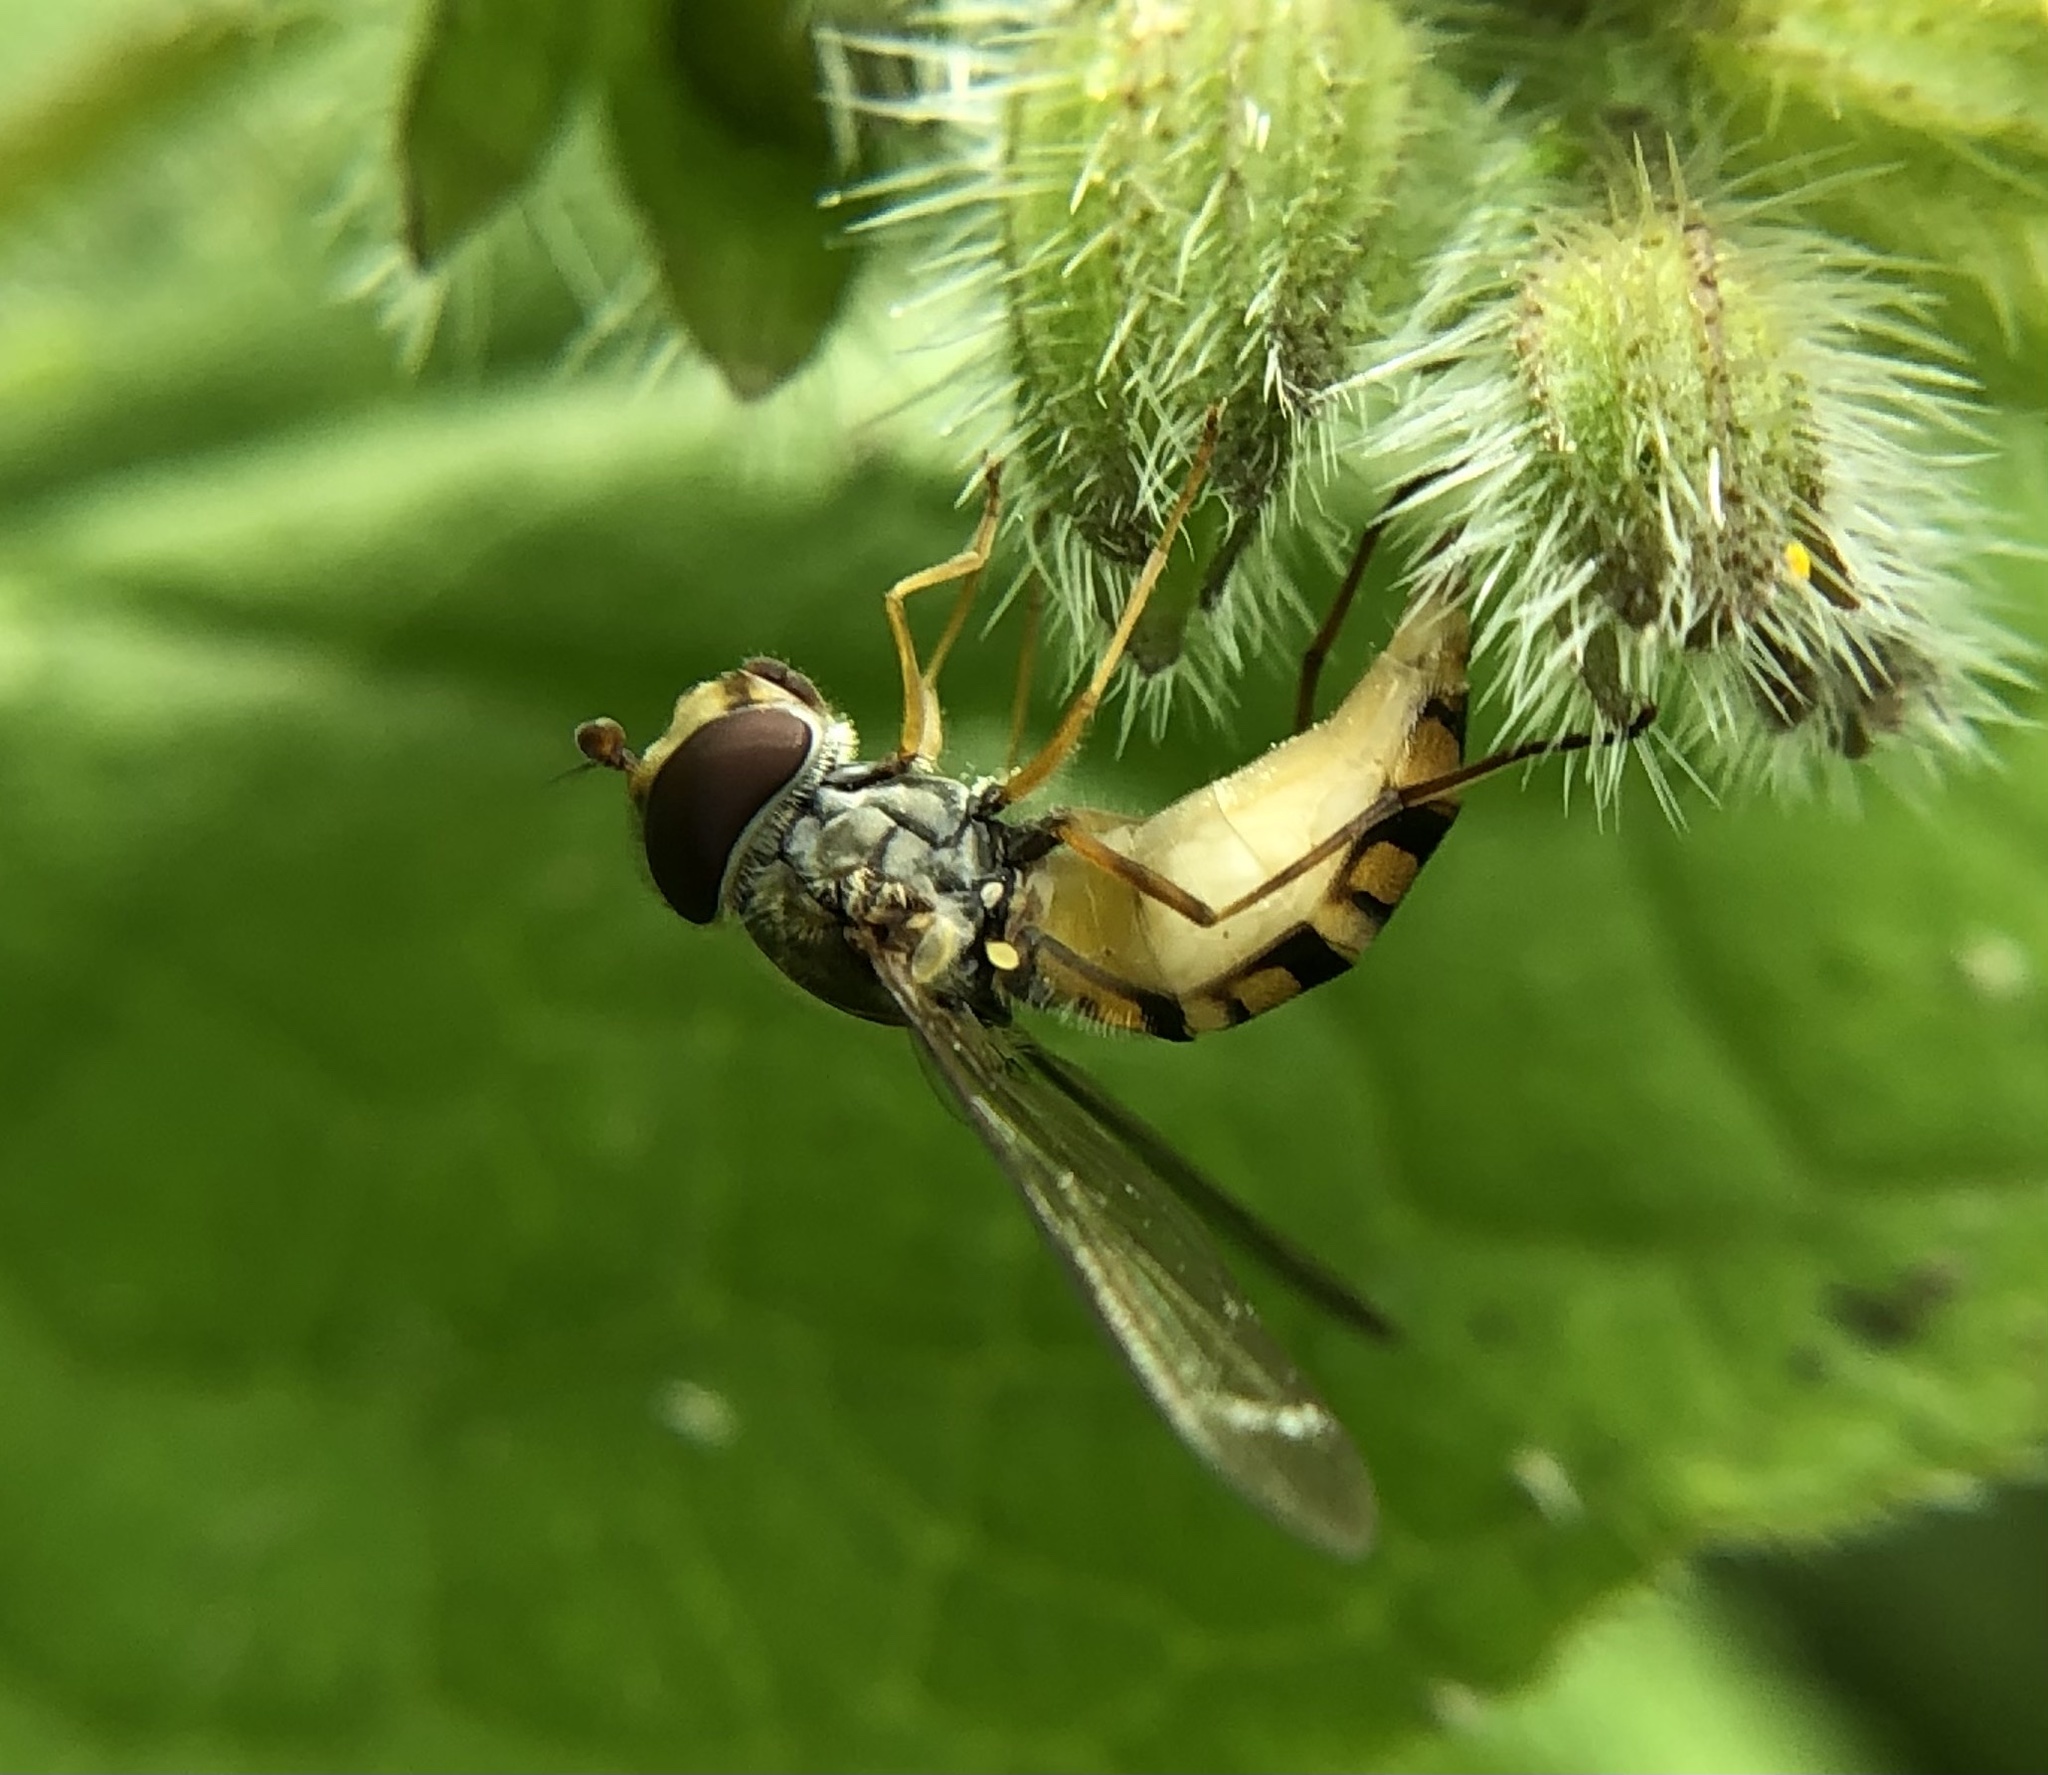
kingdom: Animalia
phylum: Arthropoda
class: Insecta
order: Diptera
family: Syrphidae
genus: Episyrphus
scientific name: Episyrphus balteatus
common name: Marmalade hoverfly
